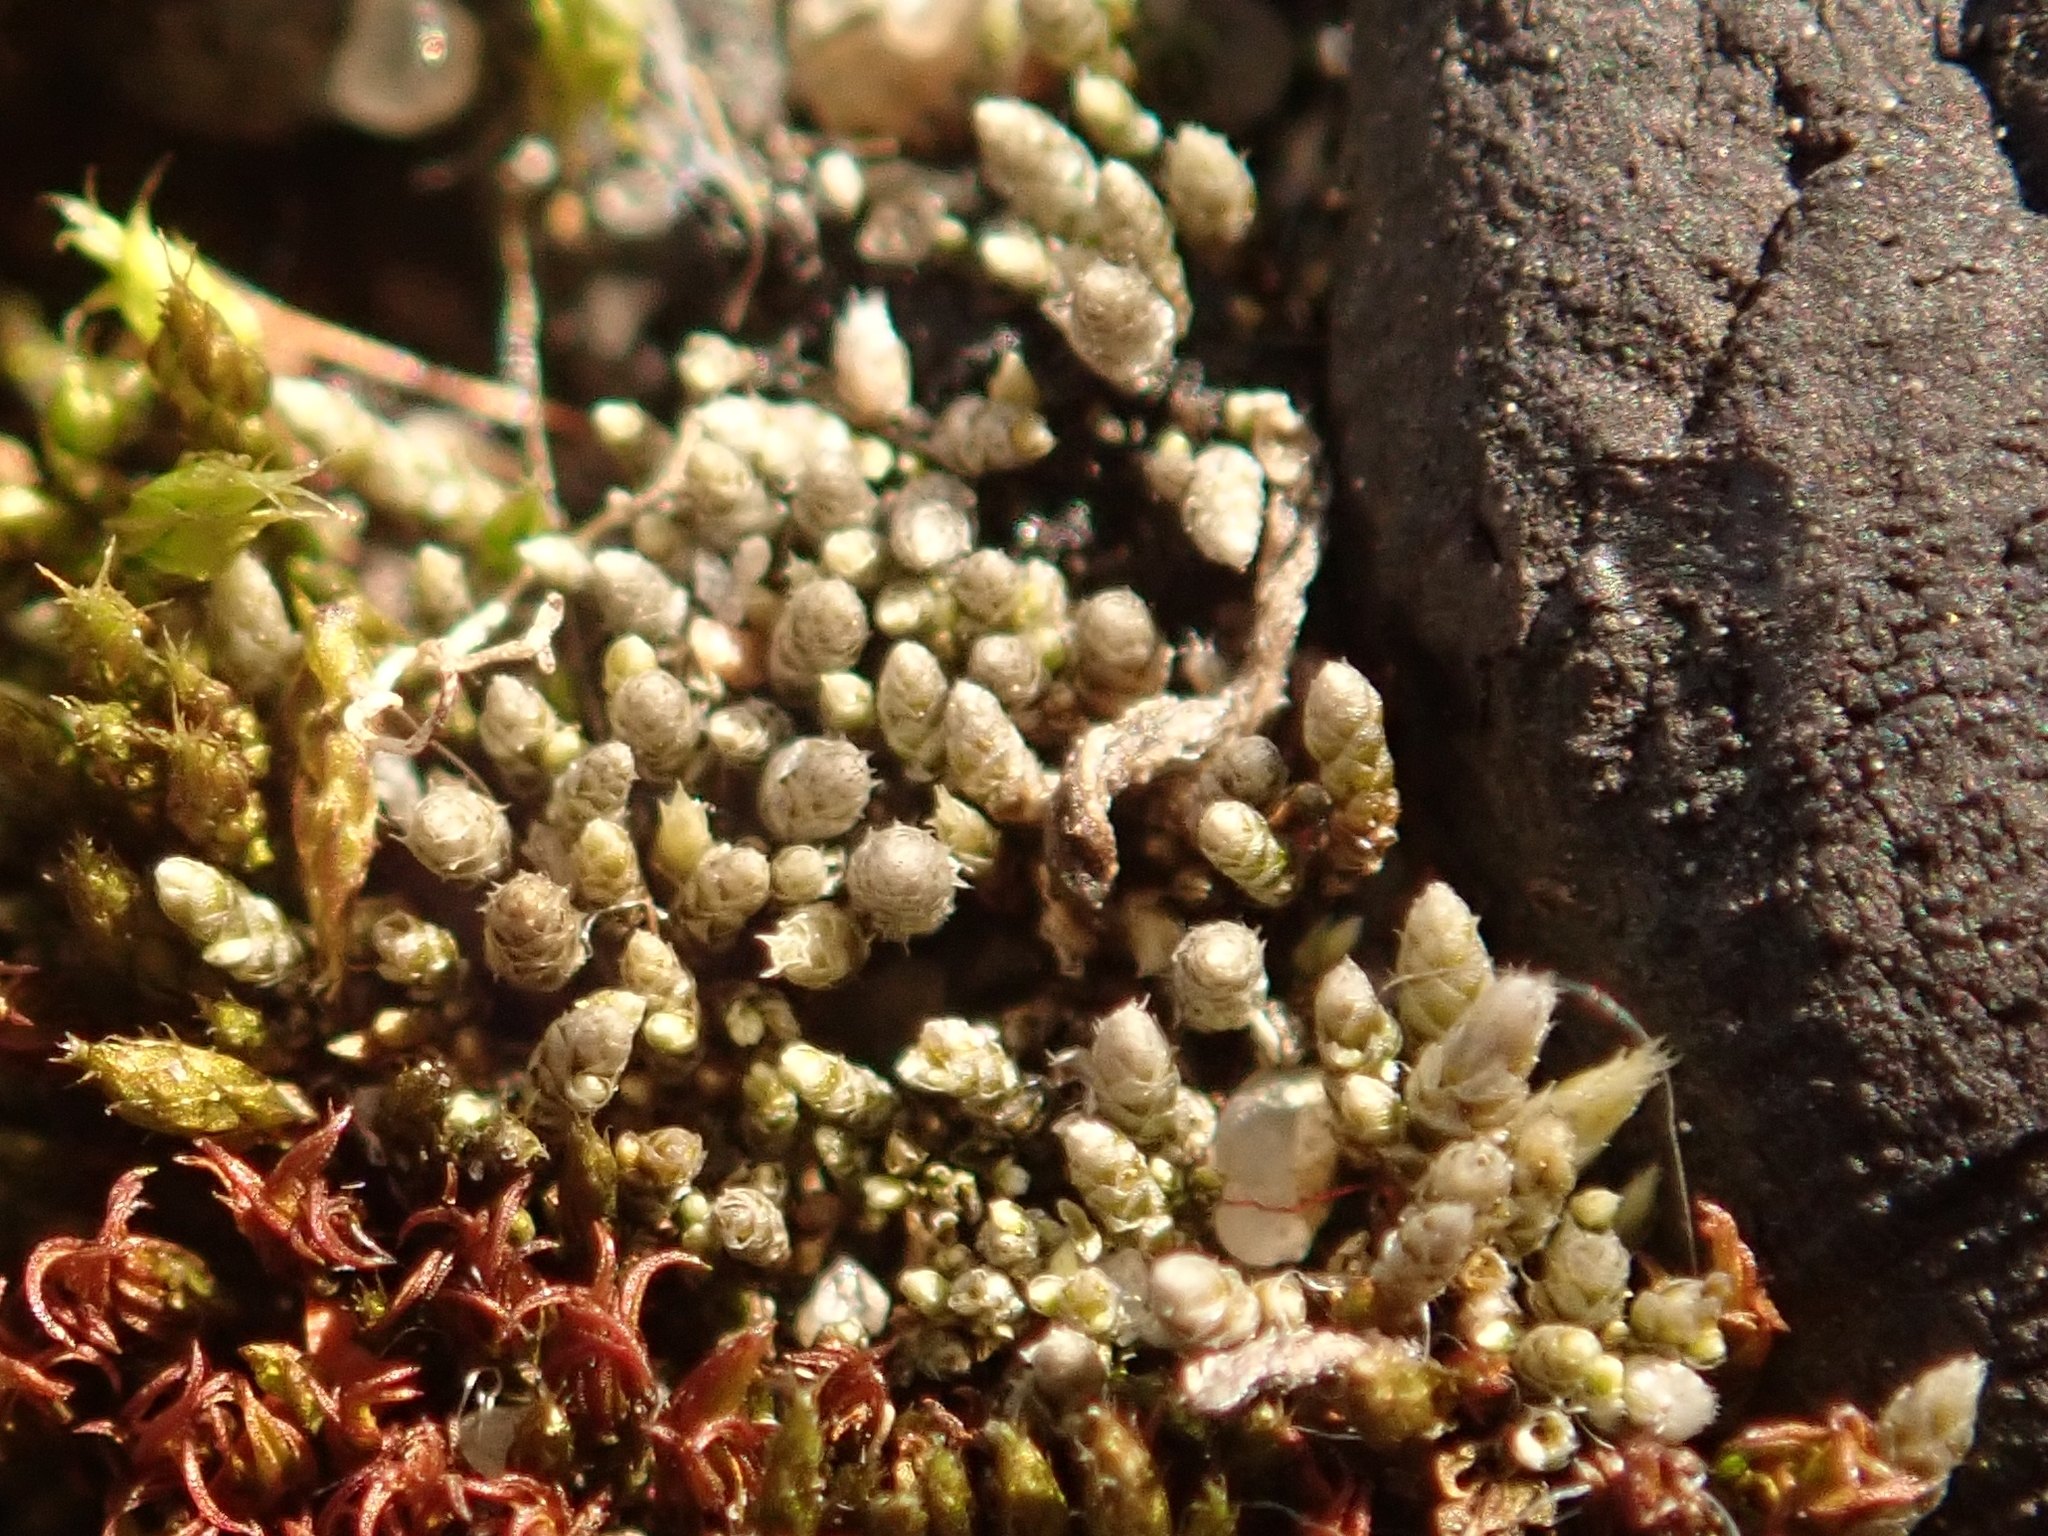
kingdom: Plantae
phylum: Bryophyta
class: Bryopsida
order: Bryales
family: Bryaceae
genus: Bryum
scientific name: Bryum argenteum
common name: Silver-moss
